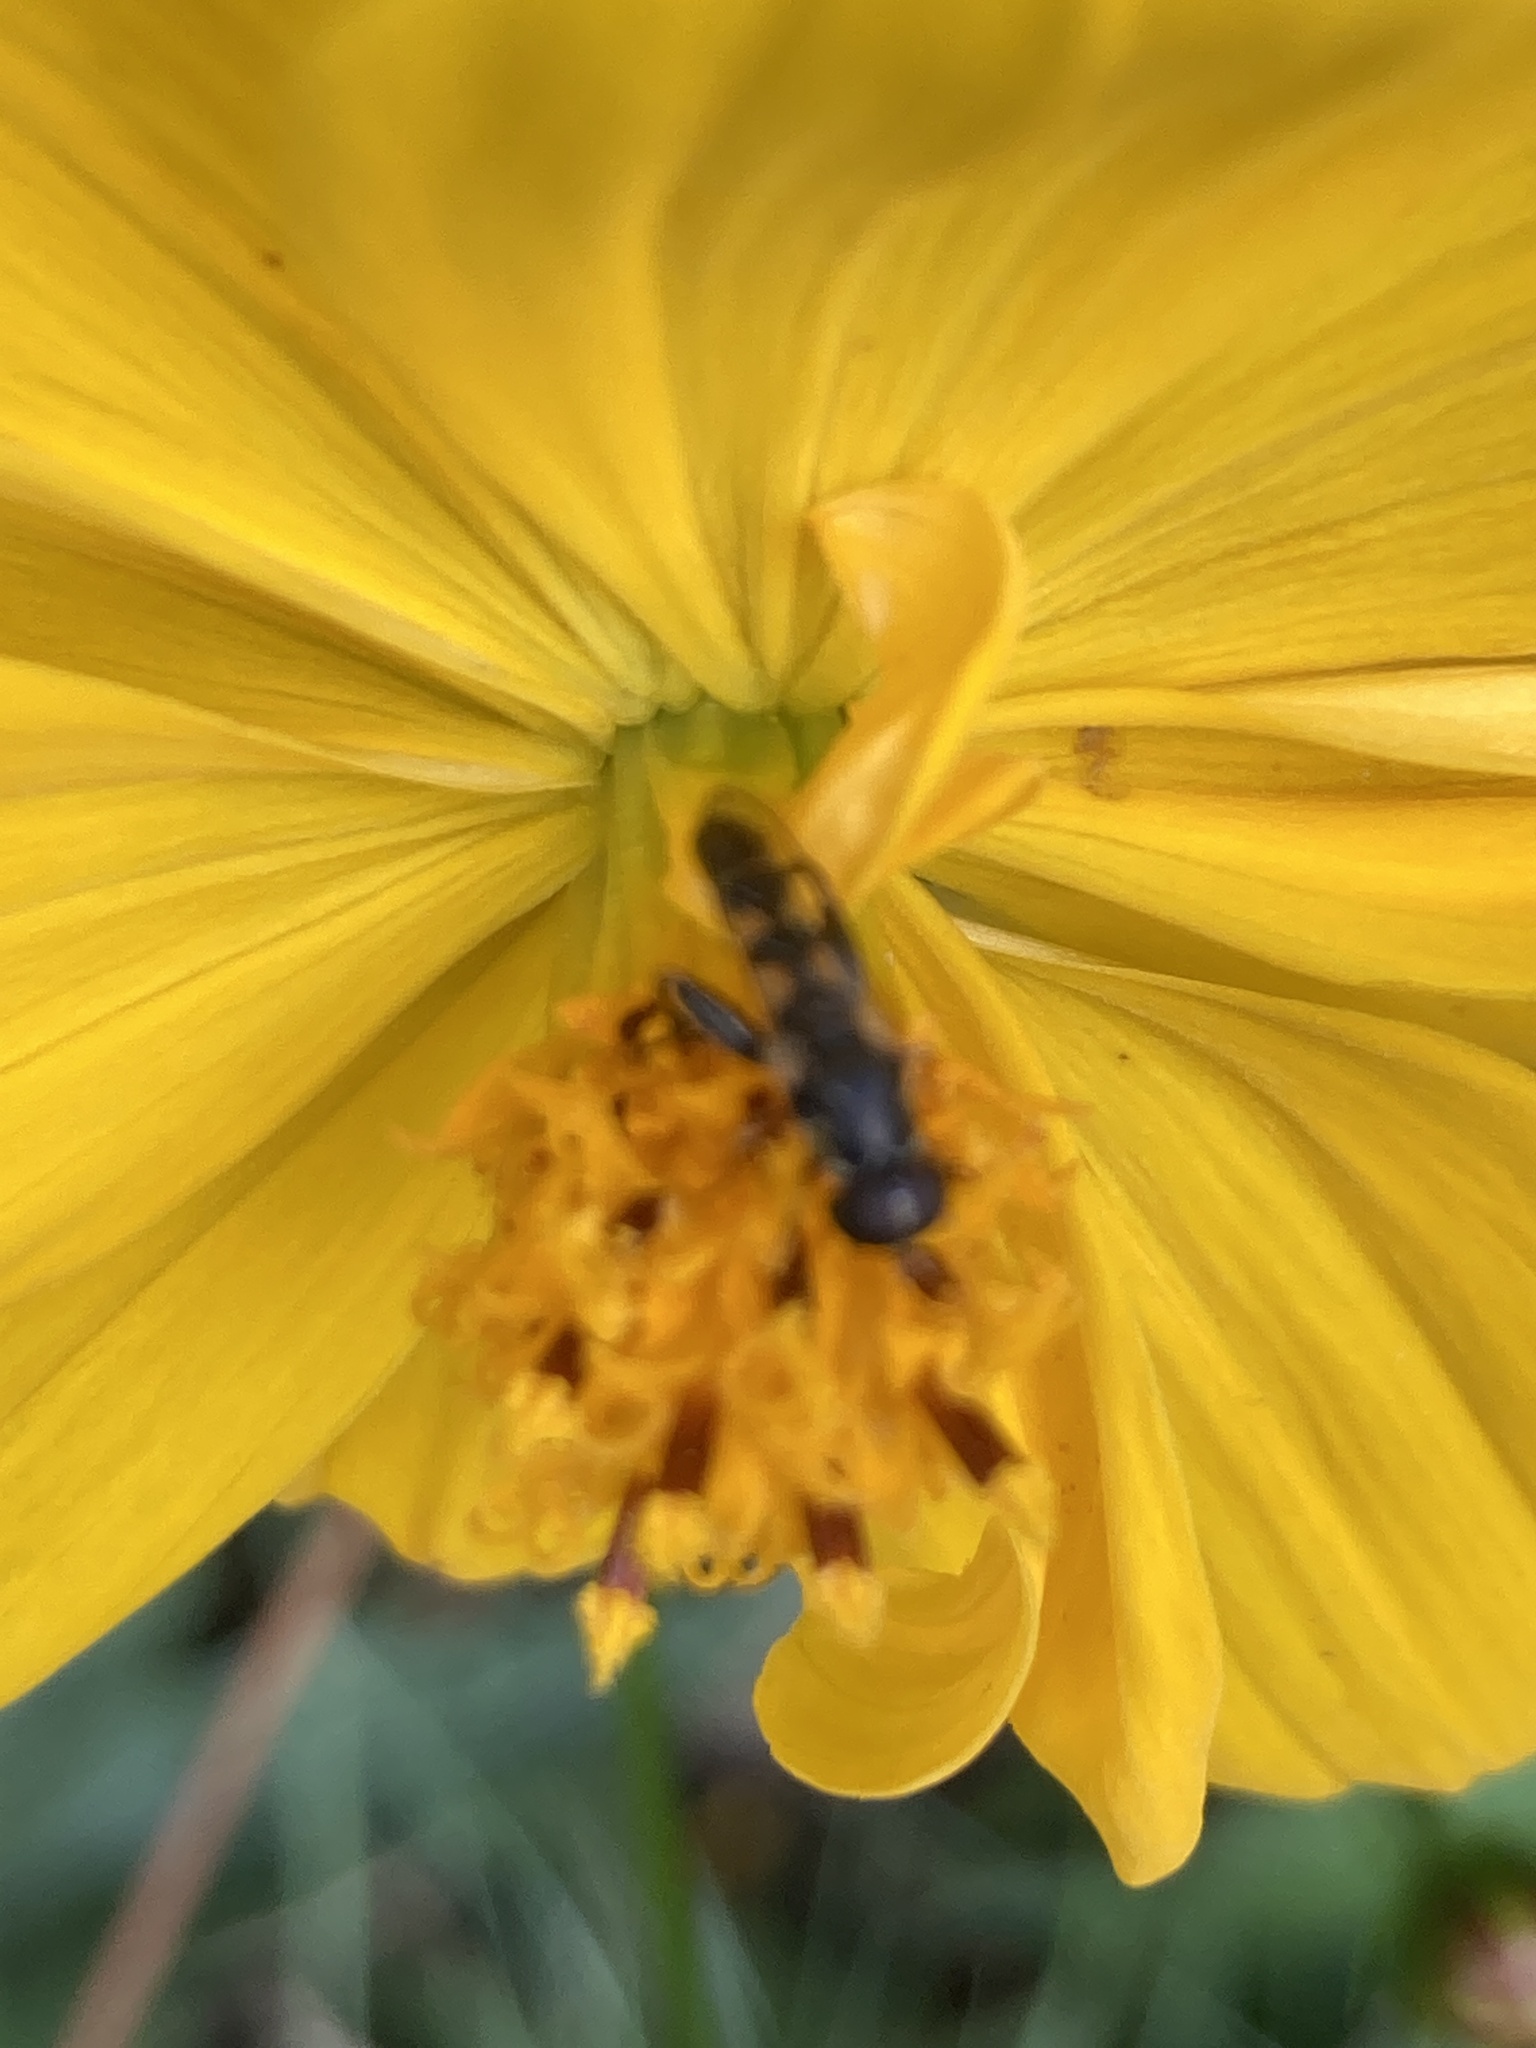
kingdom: Animalia
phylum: Arthropoda
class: Insecta
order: Diptera
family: Syrphidae
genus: Syritta
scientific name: Syritta pipiens
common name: Hover fly
